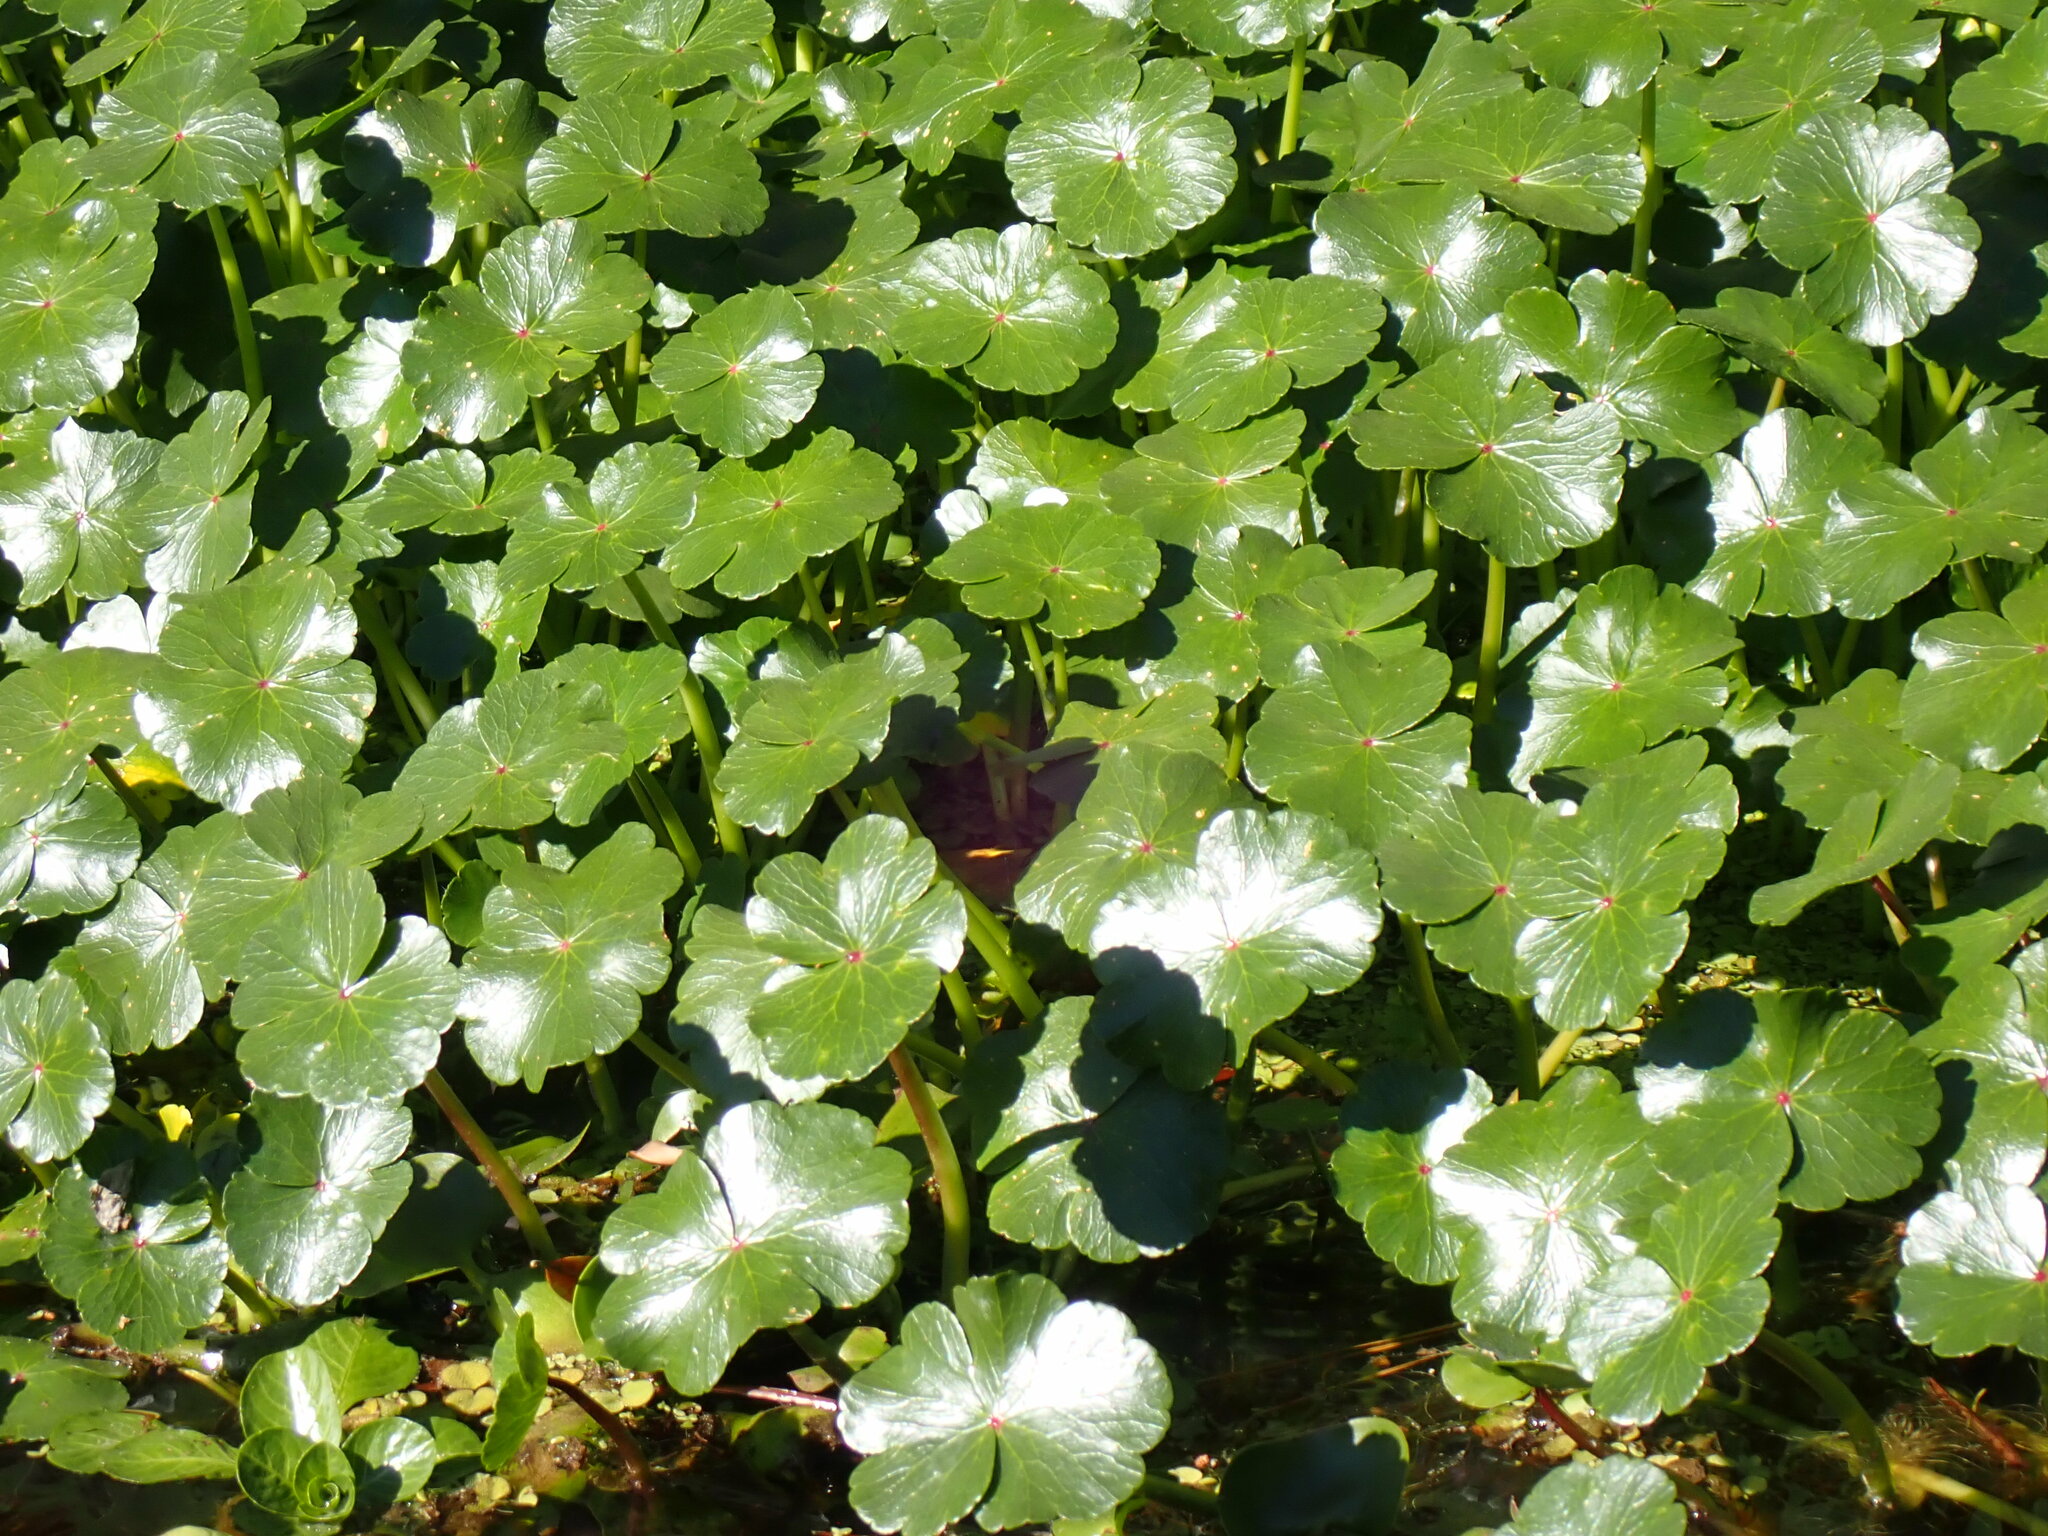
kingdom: Plantae
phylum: Tracheophyta
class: Magnoliopsida
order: Apiales
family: Araliaceae
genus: Hydrocotyle
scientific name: Hydrocotyle ranunculoides
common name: Floating pennywort
